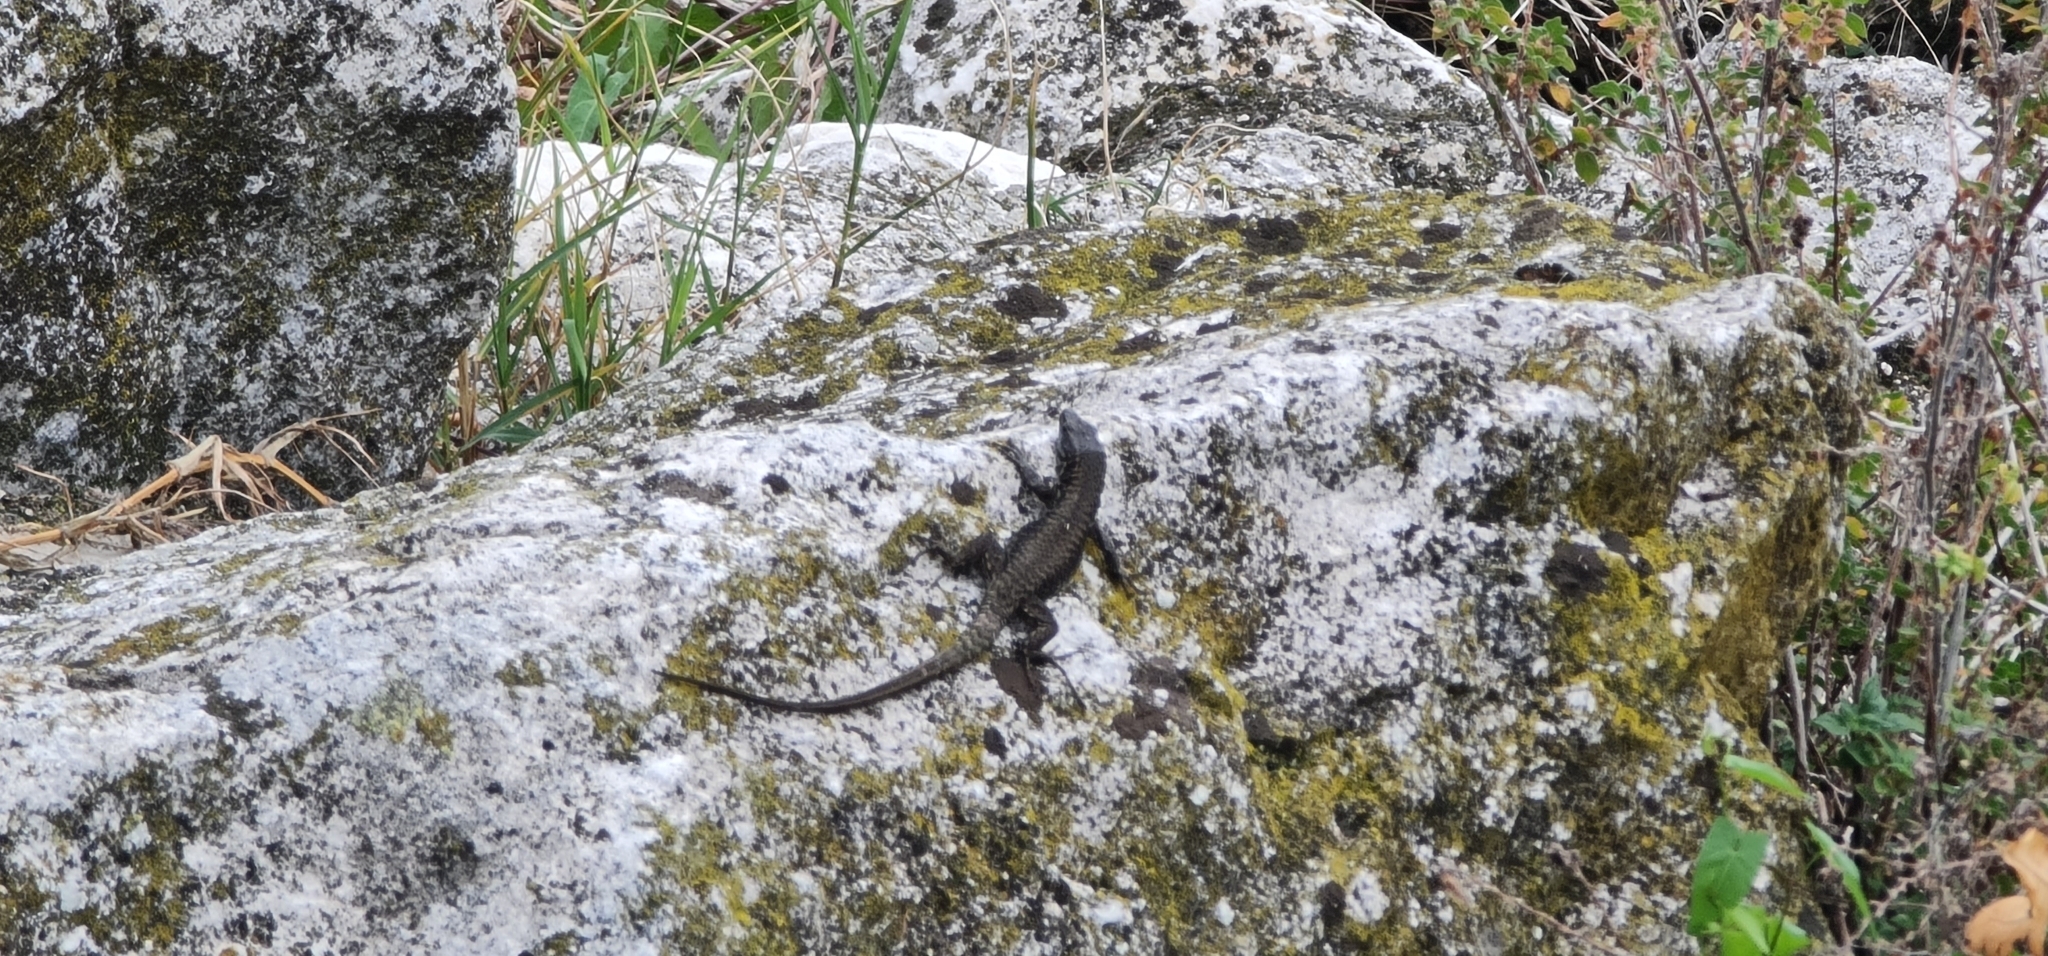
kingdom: Animalia
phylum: Chordata
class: Squamata
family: Lacertidae
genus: Podarcis
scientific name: Podarcis muralis
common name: Common wall lizard
